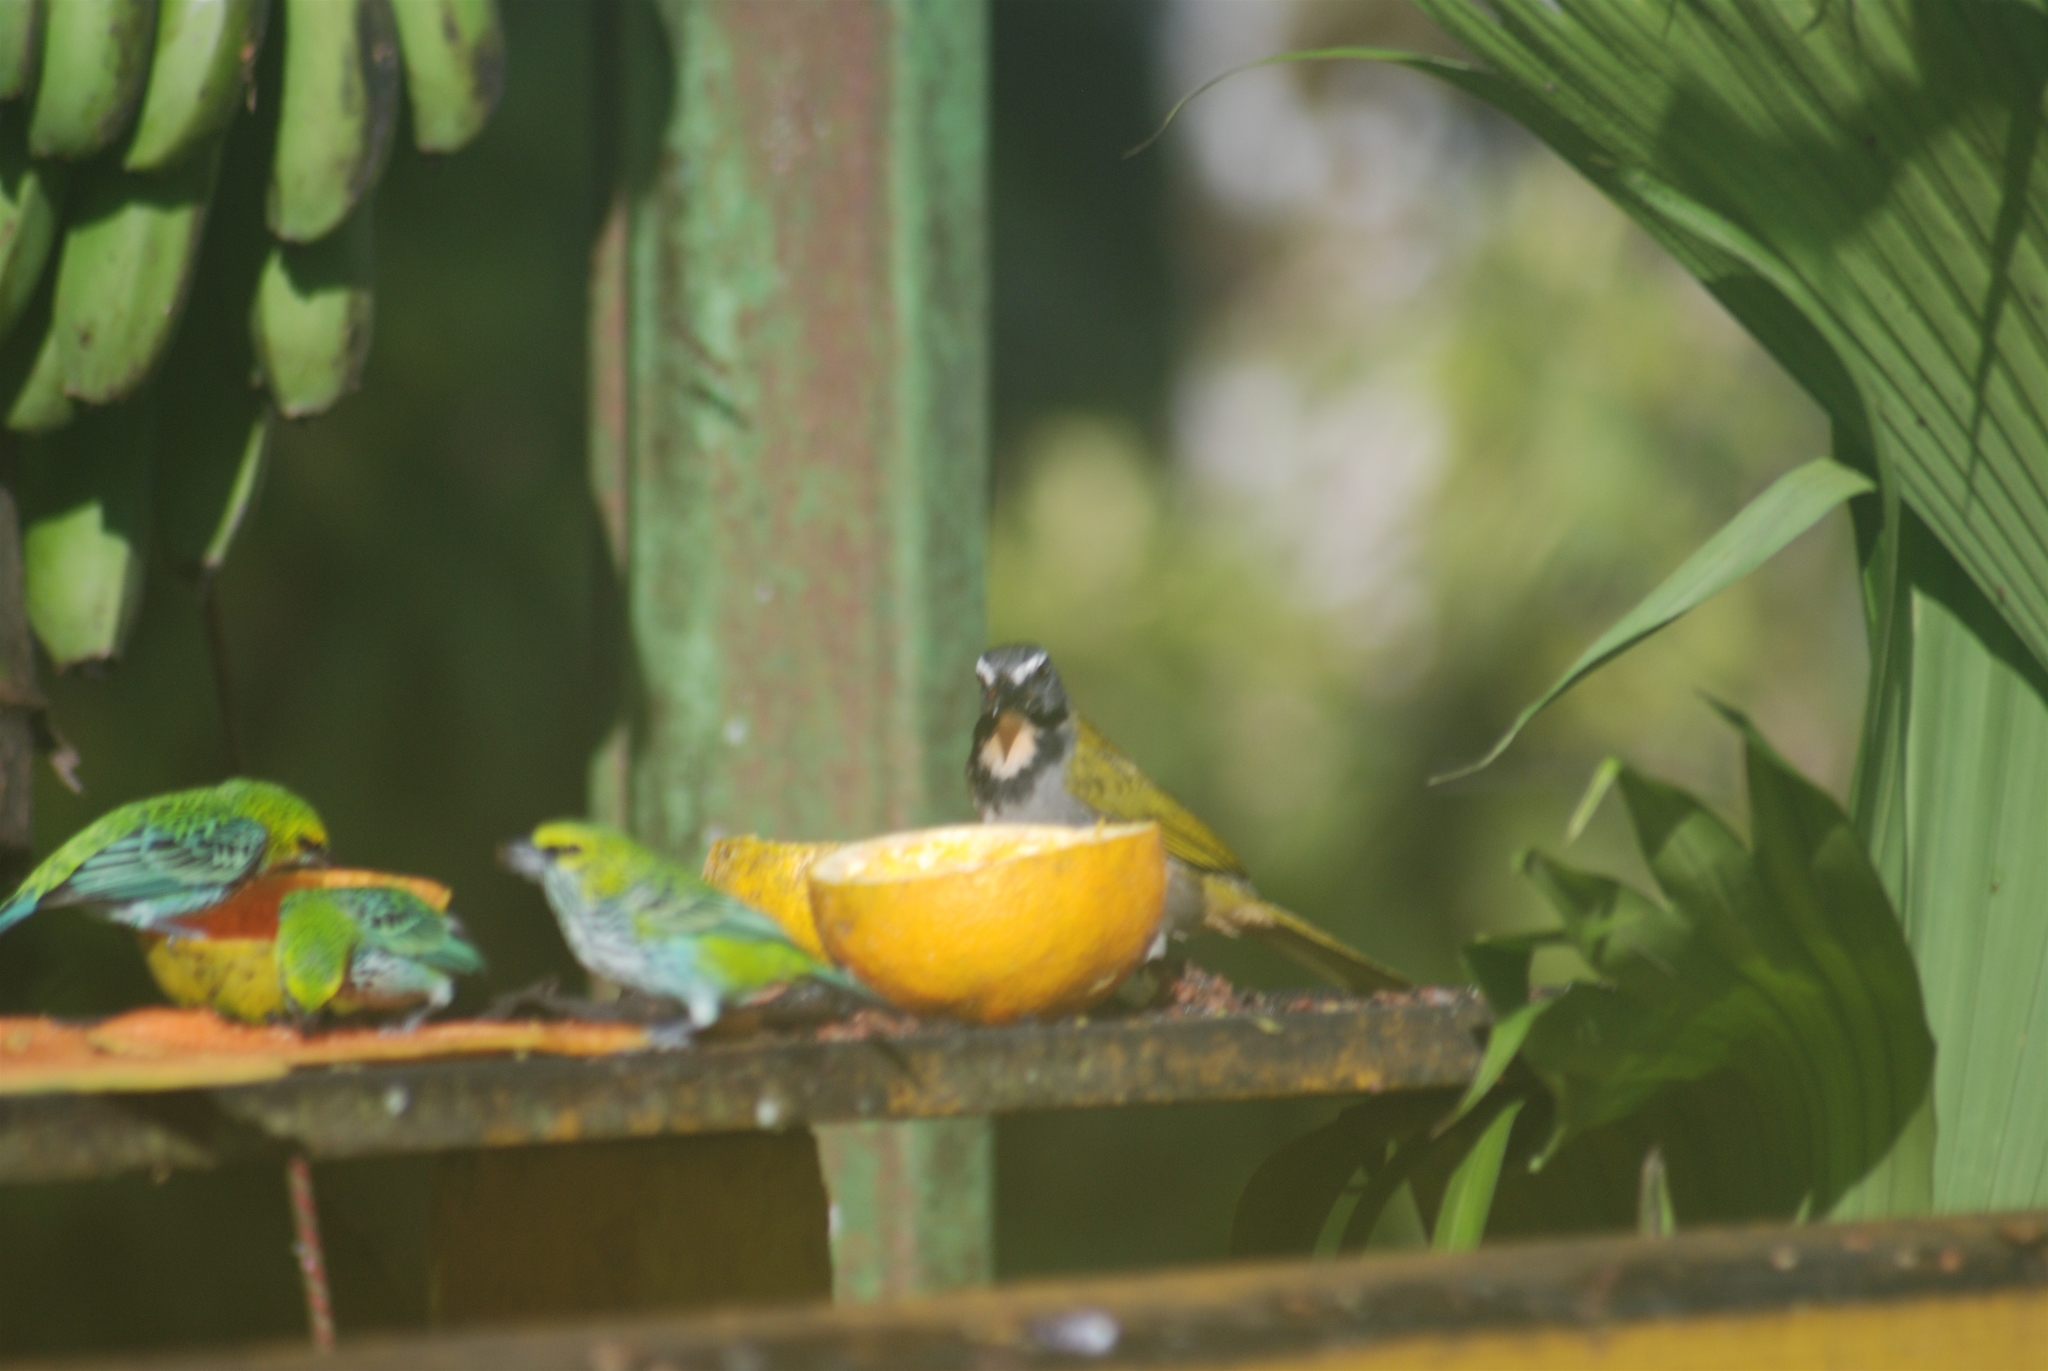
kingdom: Animalia
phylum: Chordata
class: Aves
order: Passeriformes
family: Thraupidae
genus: Saltator
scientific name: Saltator maximus
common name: Buff-throated saltator
